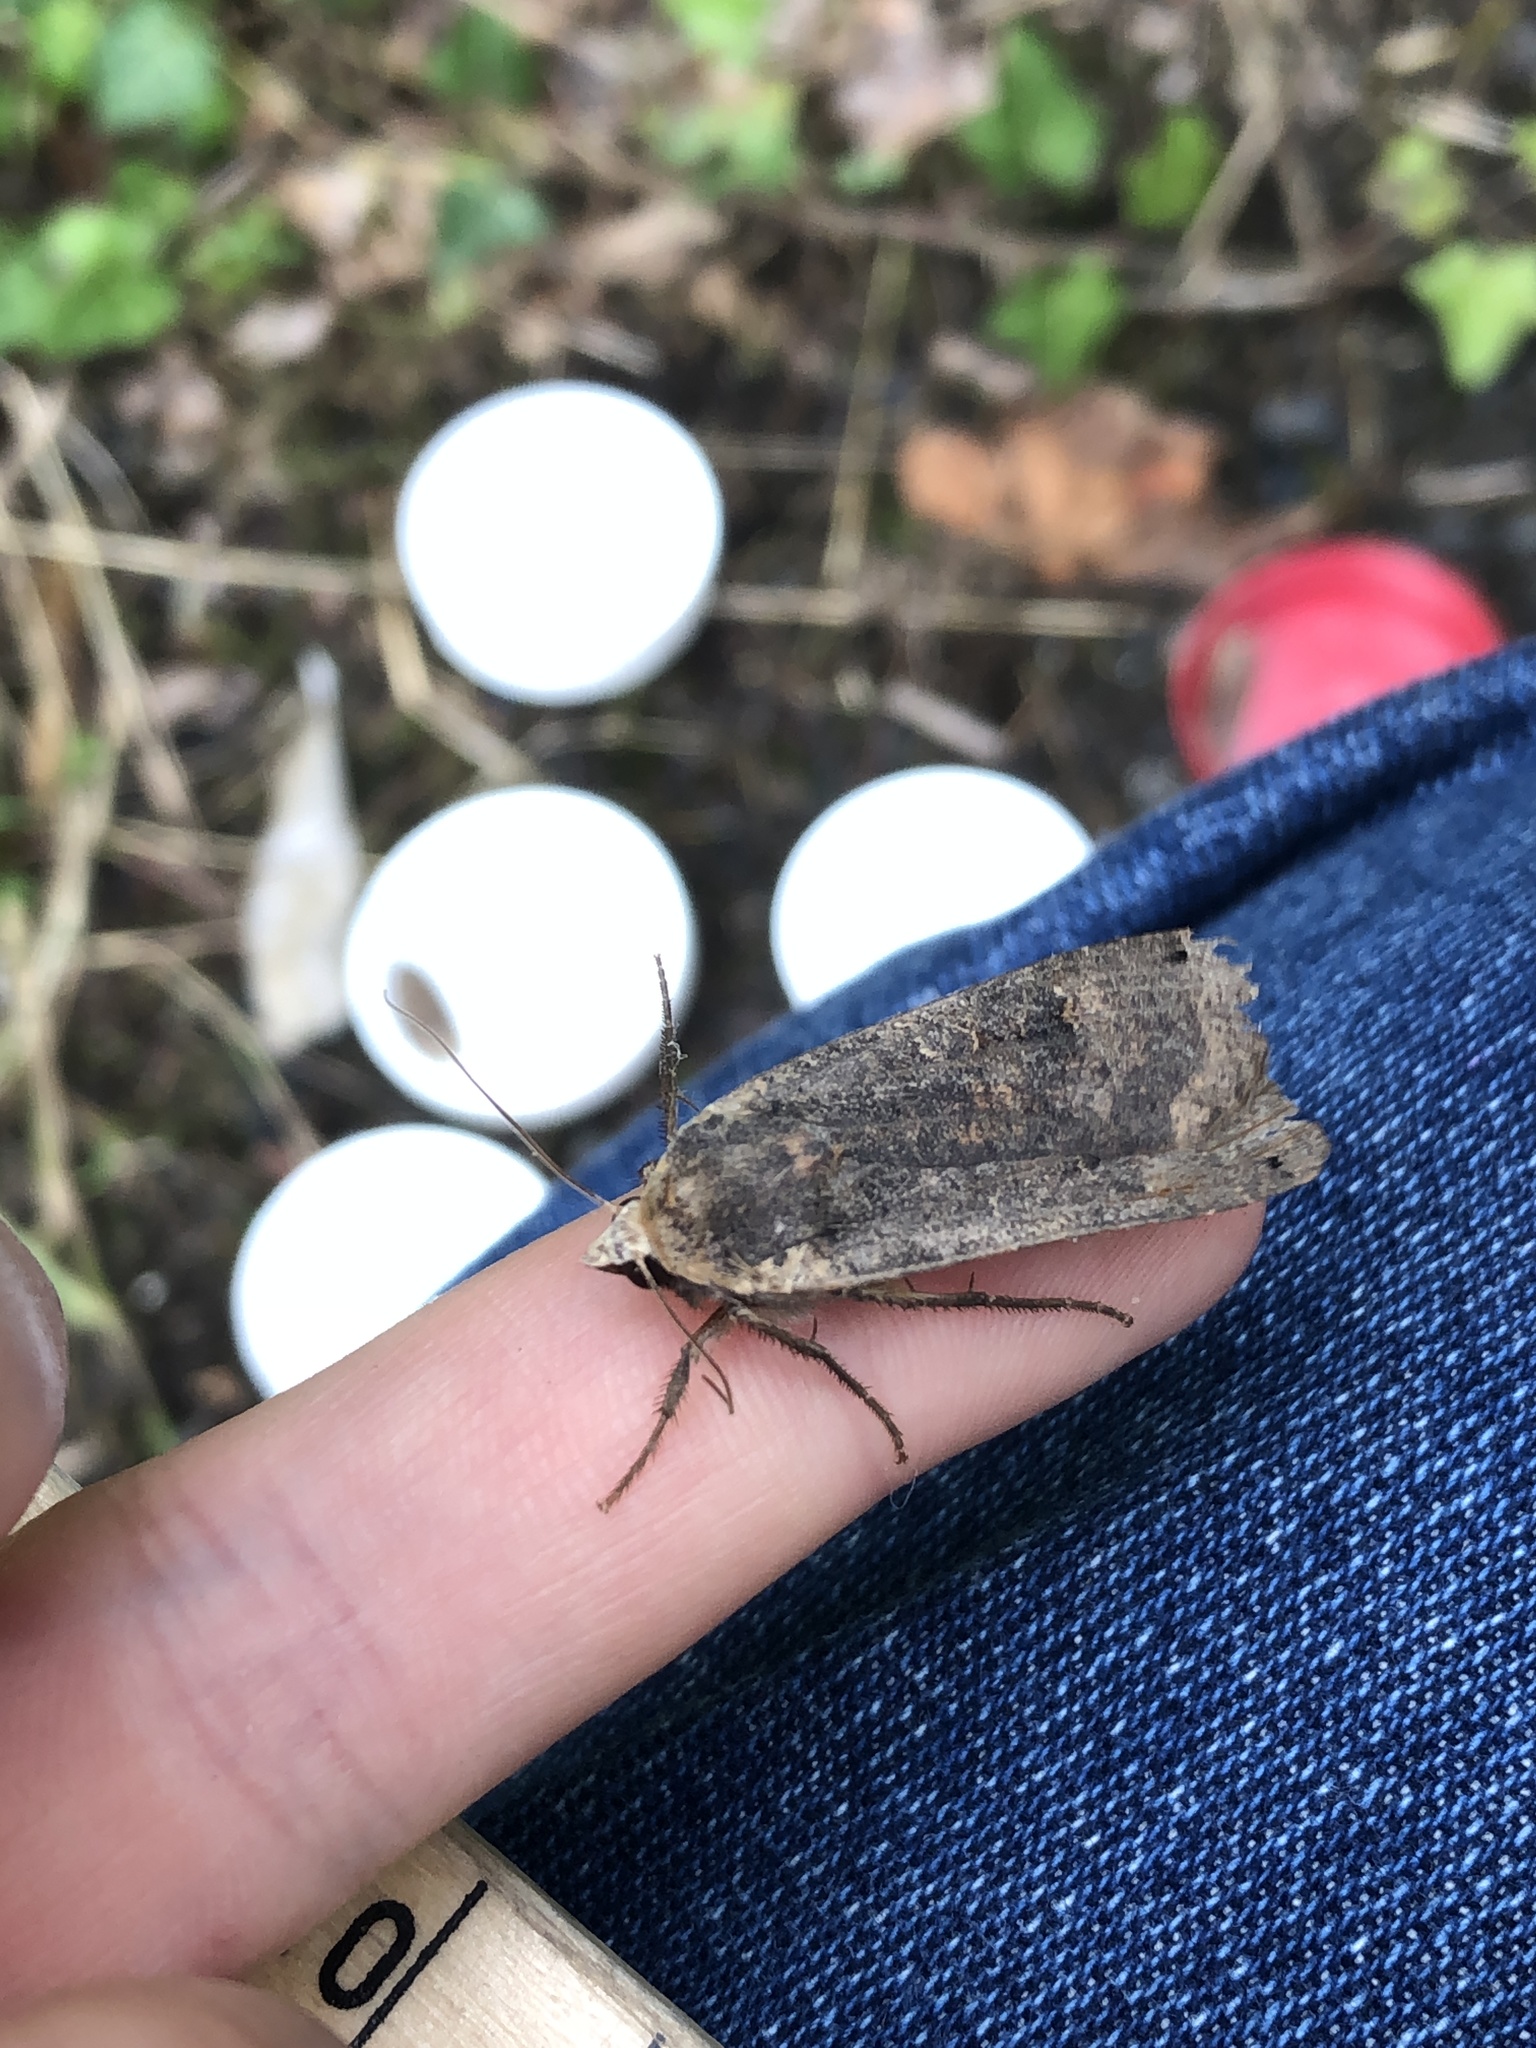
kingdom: Animalia
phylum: Arthropoda
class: Insecta
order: Lepidoptera
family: Noctuidae
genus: Noctua
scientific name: Noctua pronuba
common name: Large yellow underwing
